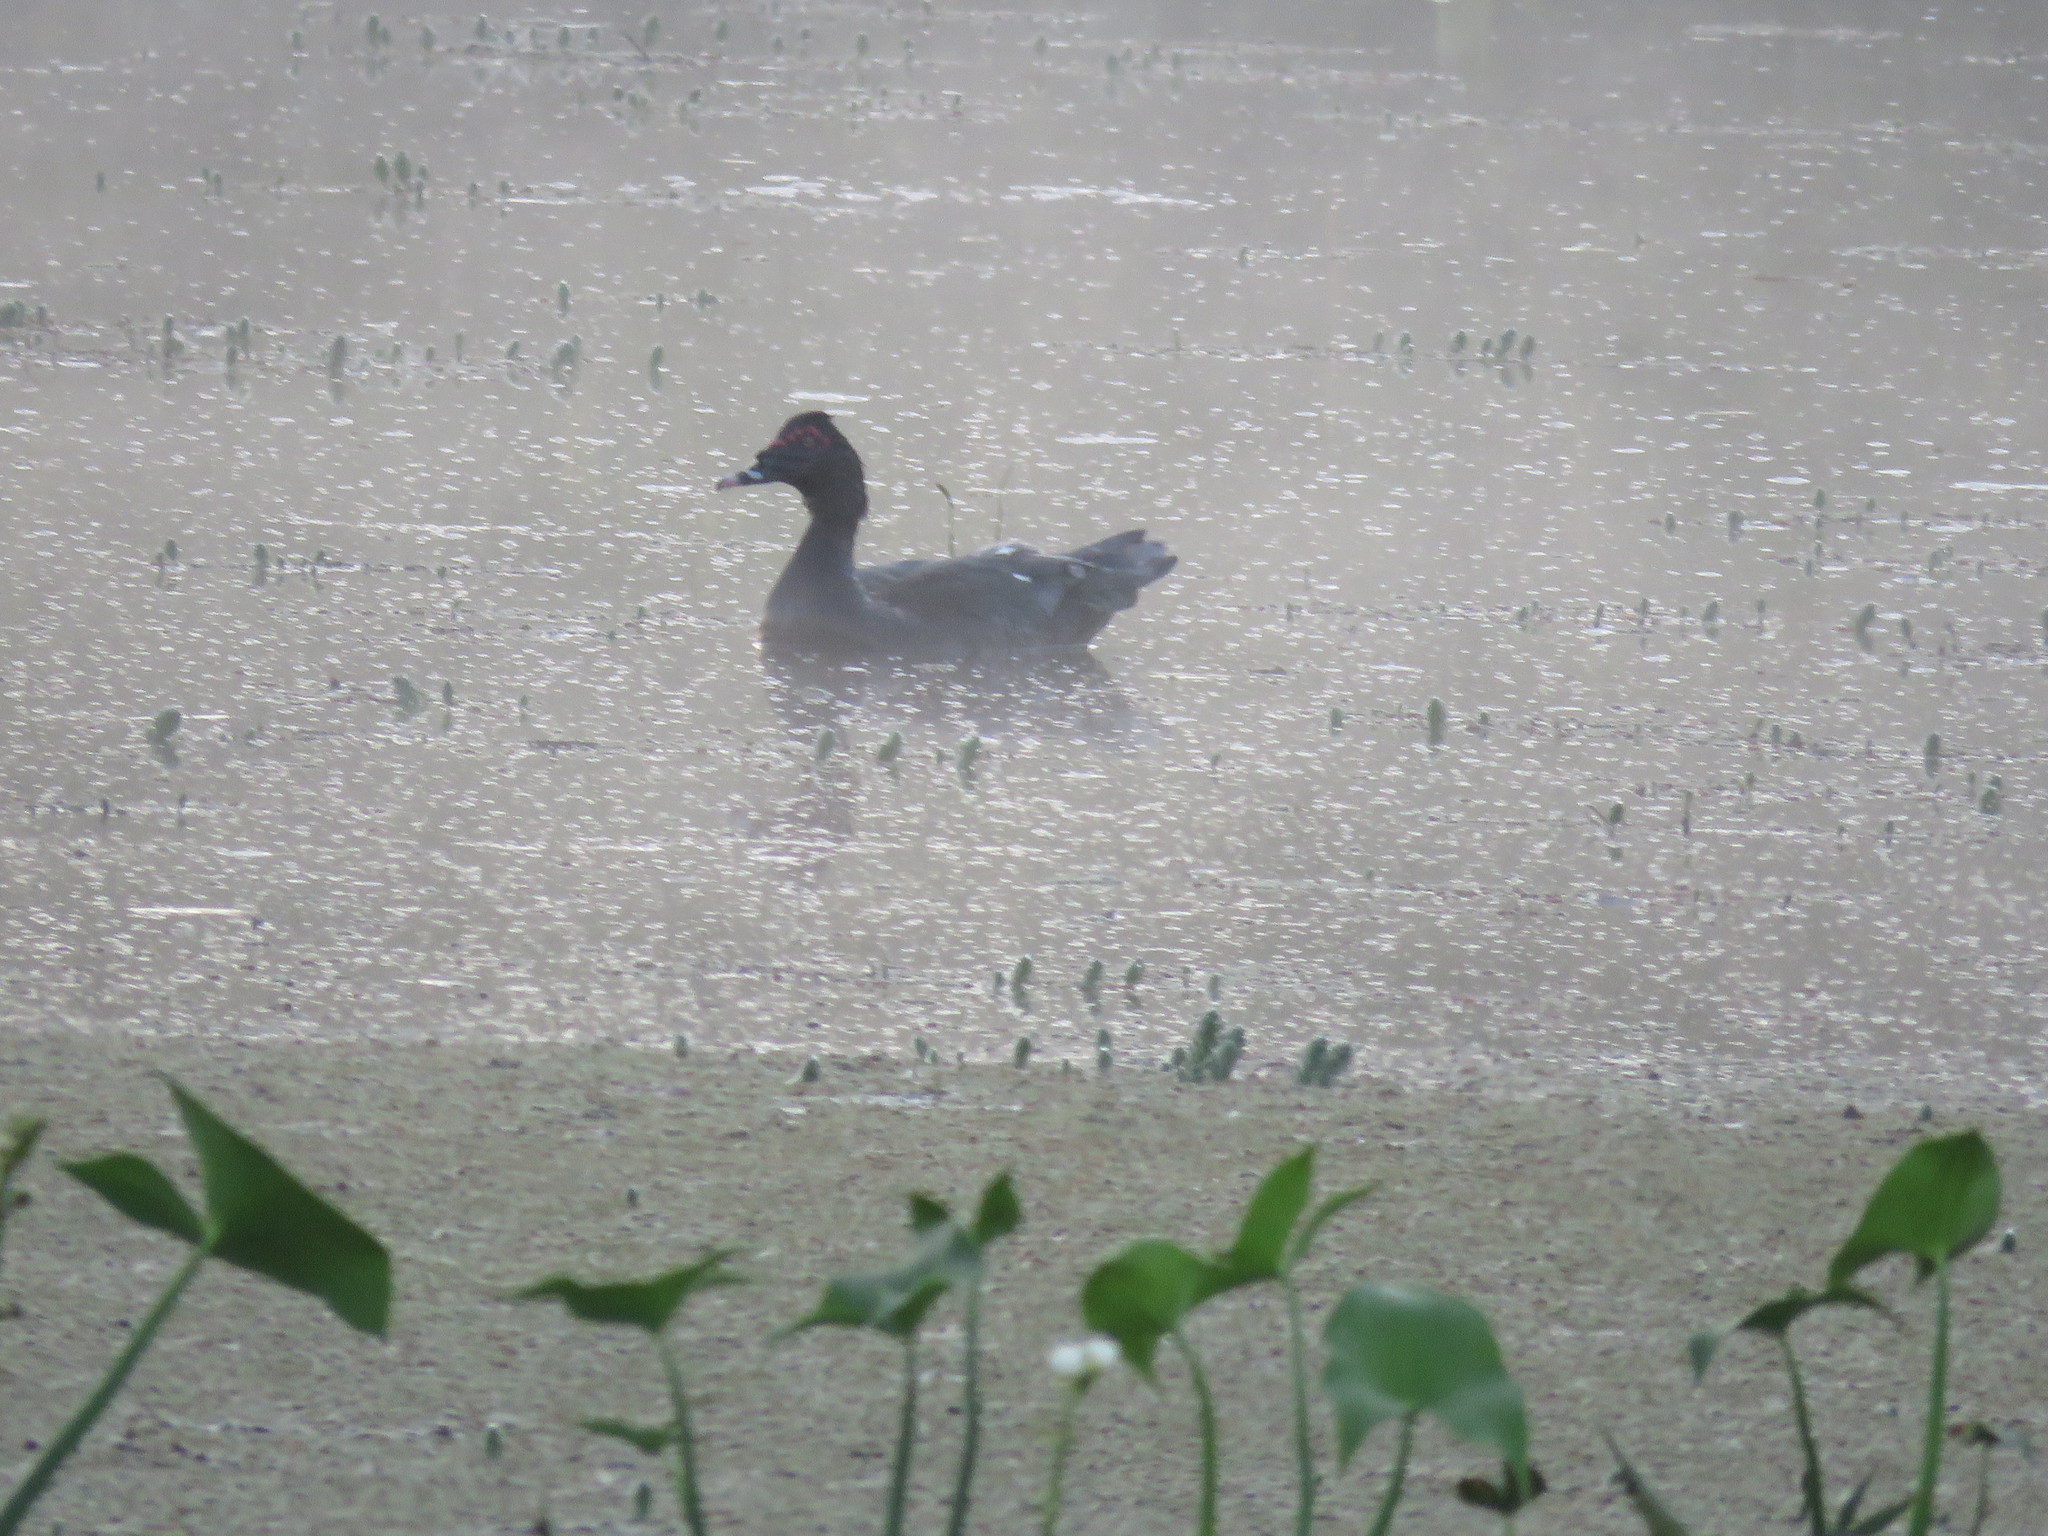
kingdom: Animalia
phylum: Chordata
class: Aves
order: Anseriformes
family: Anatidae
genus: Cairina
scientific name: Cairina moschata
